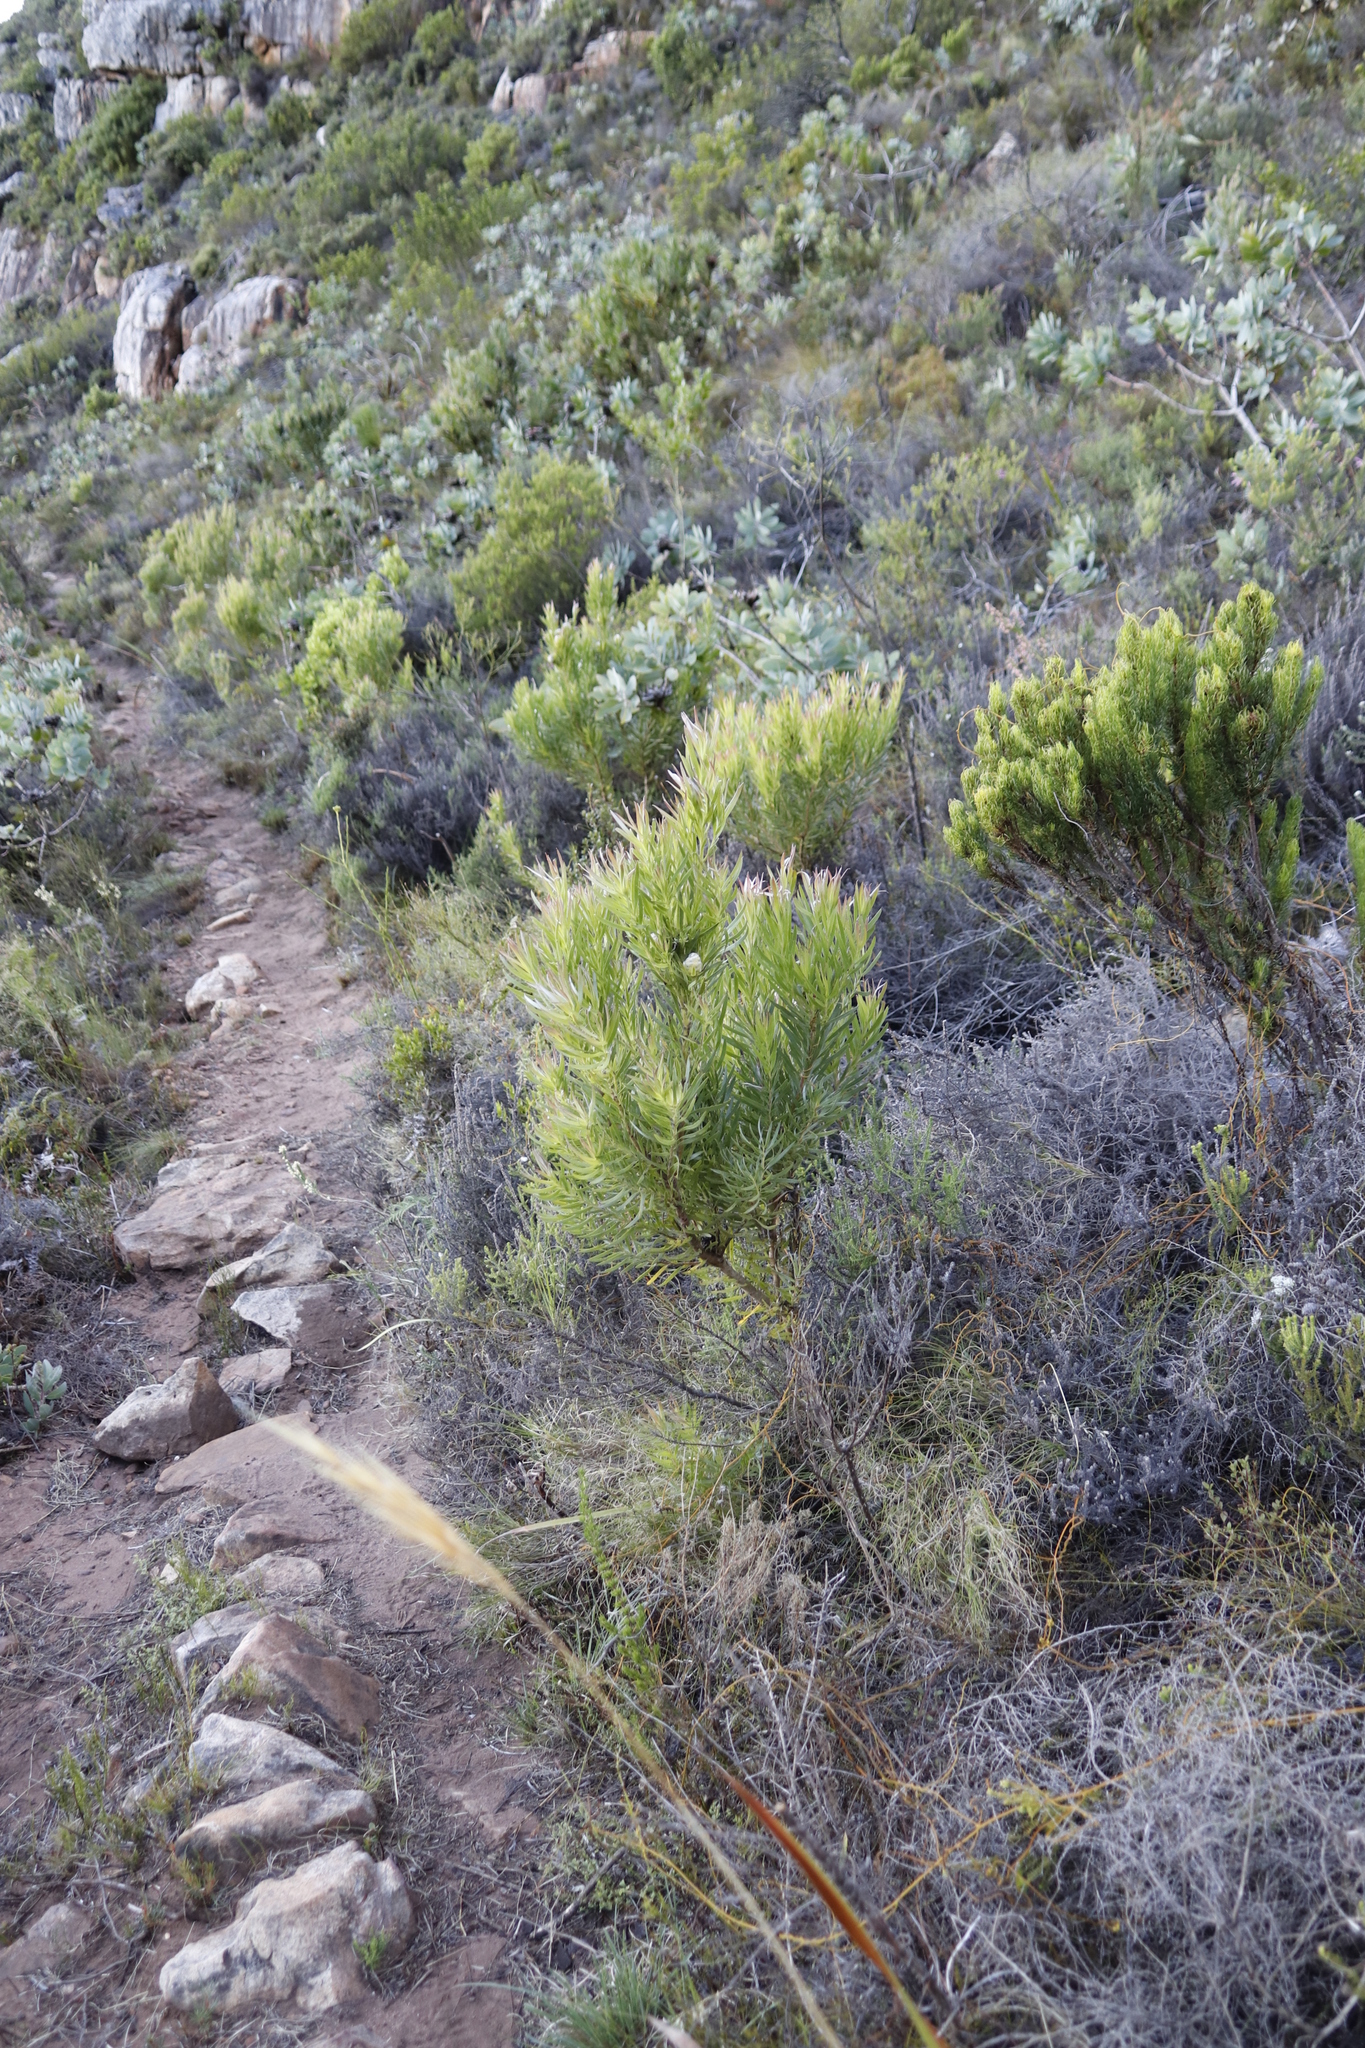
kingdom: Plantae
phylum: Tracheophyta
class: Magnoliopsida
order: Proteales
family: Proteaceae
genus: Leucadendron
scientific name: Leucadendron xanthoconus
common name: Sickle-leaf conebush
